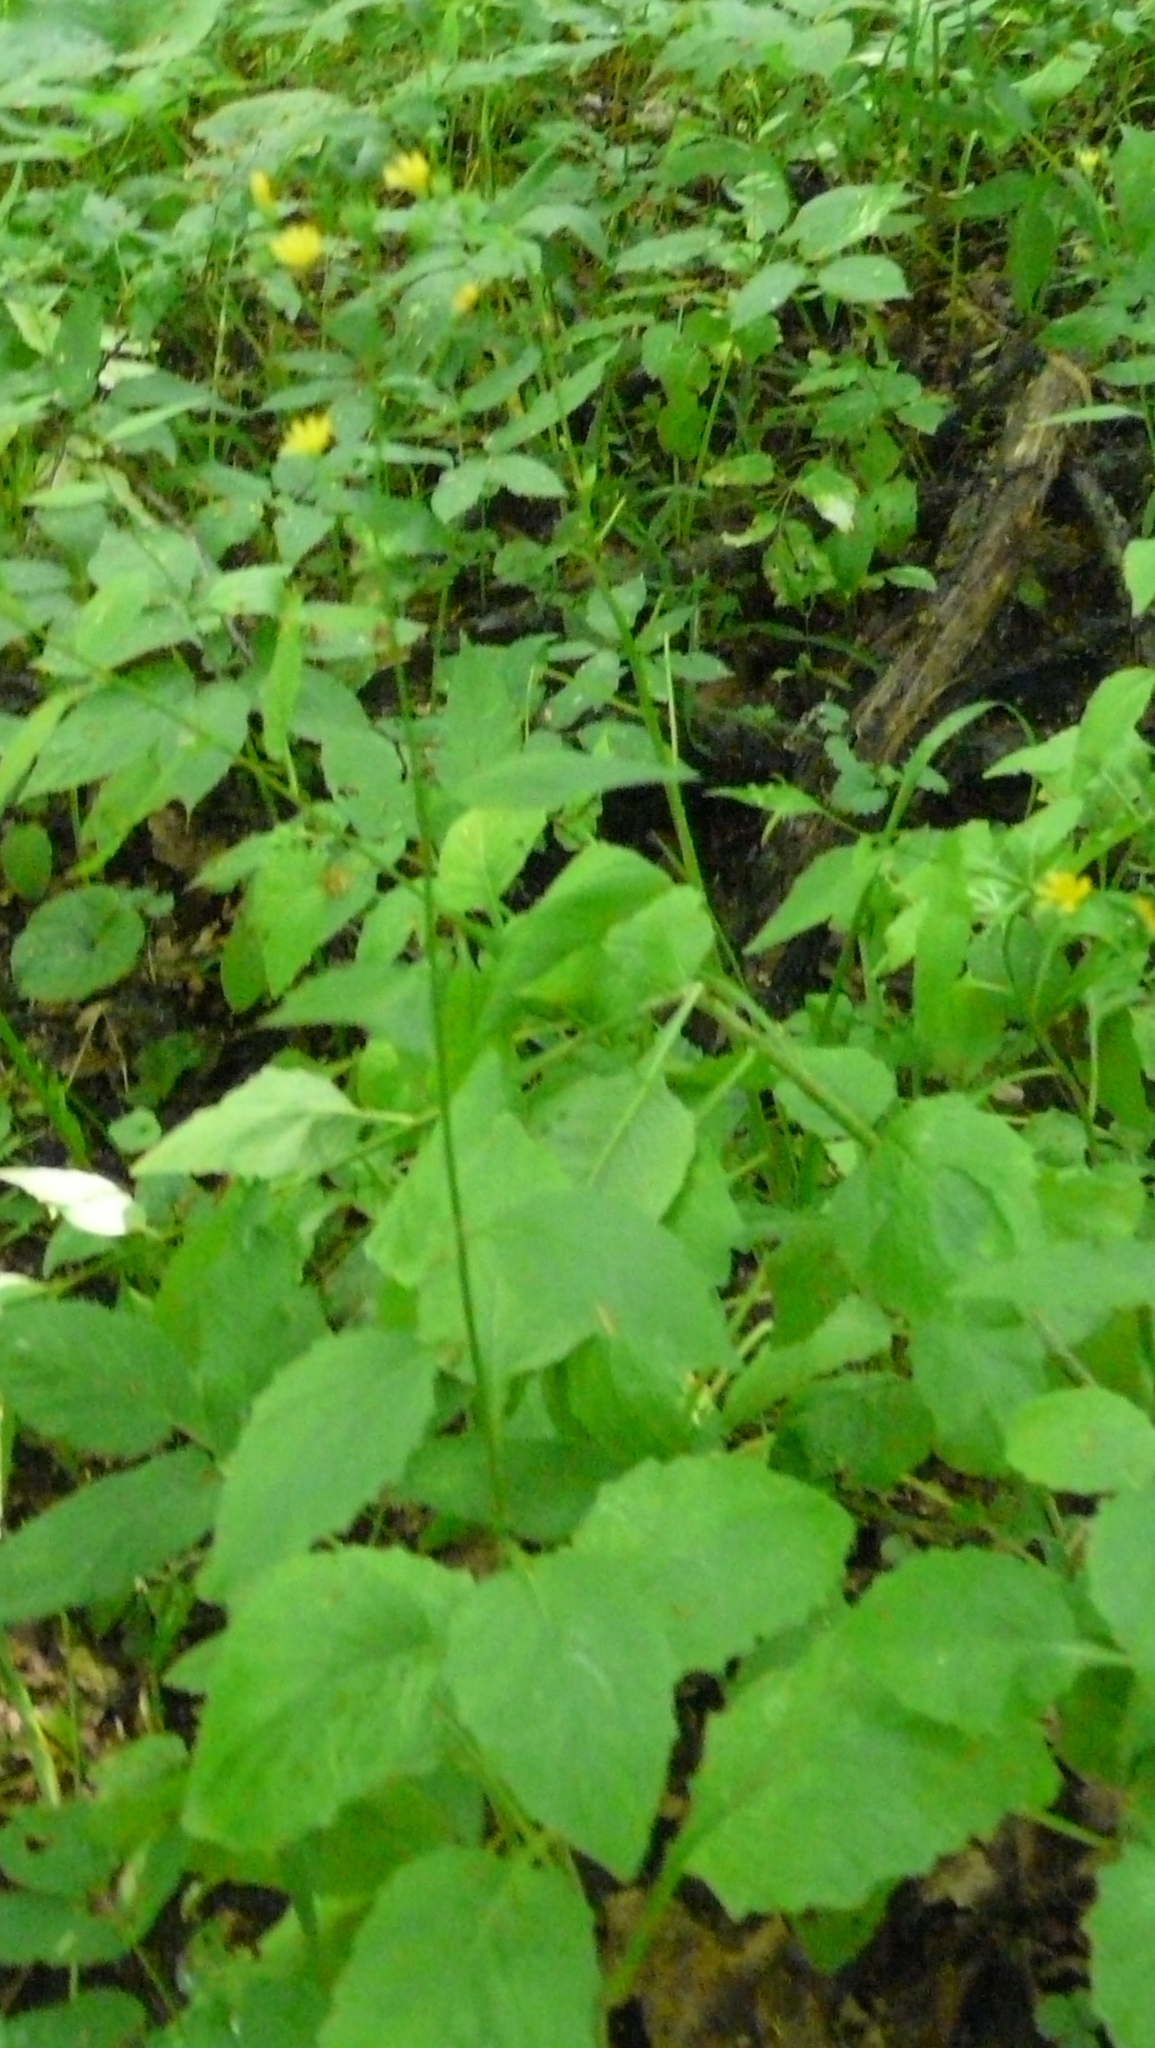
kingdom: Plantae
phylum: Tracheophyta
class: Magnoliopsida
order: Asterales
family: Asteraceae
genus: Lapsana
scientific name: Lapsana communis
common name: Nipplewort
